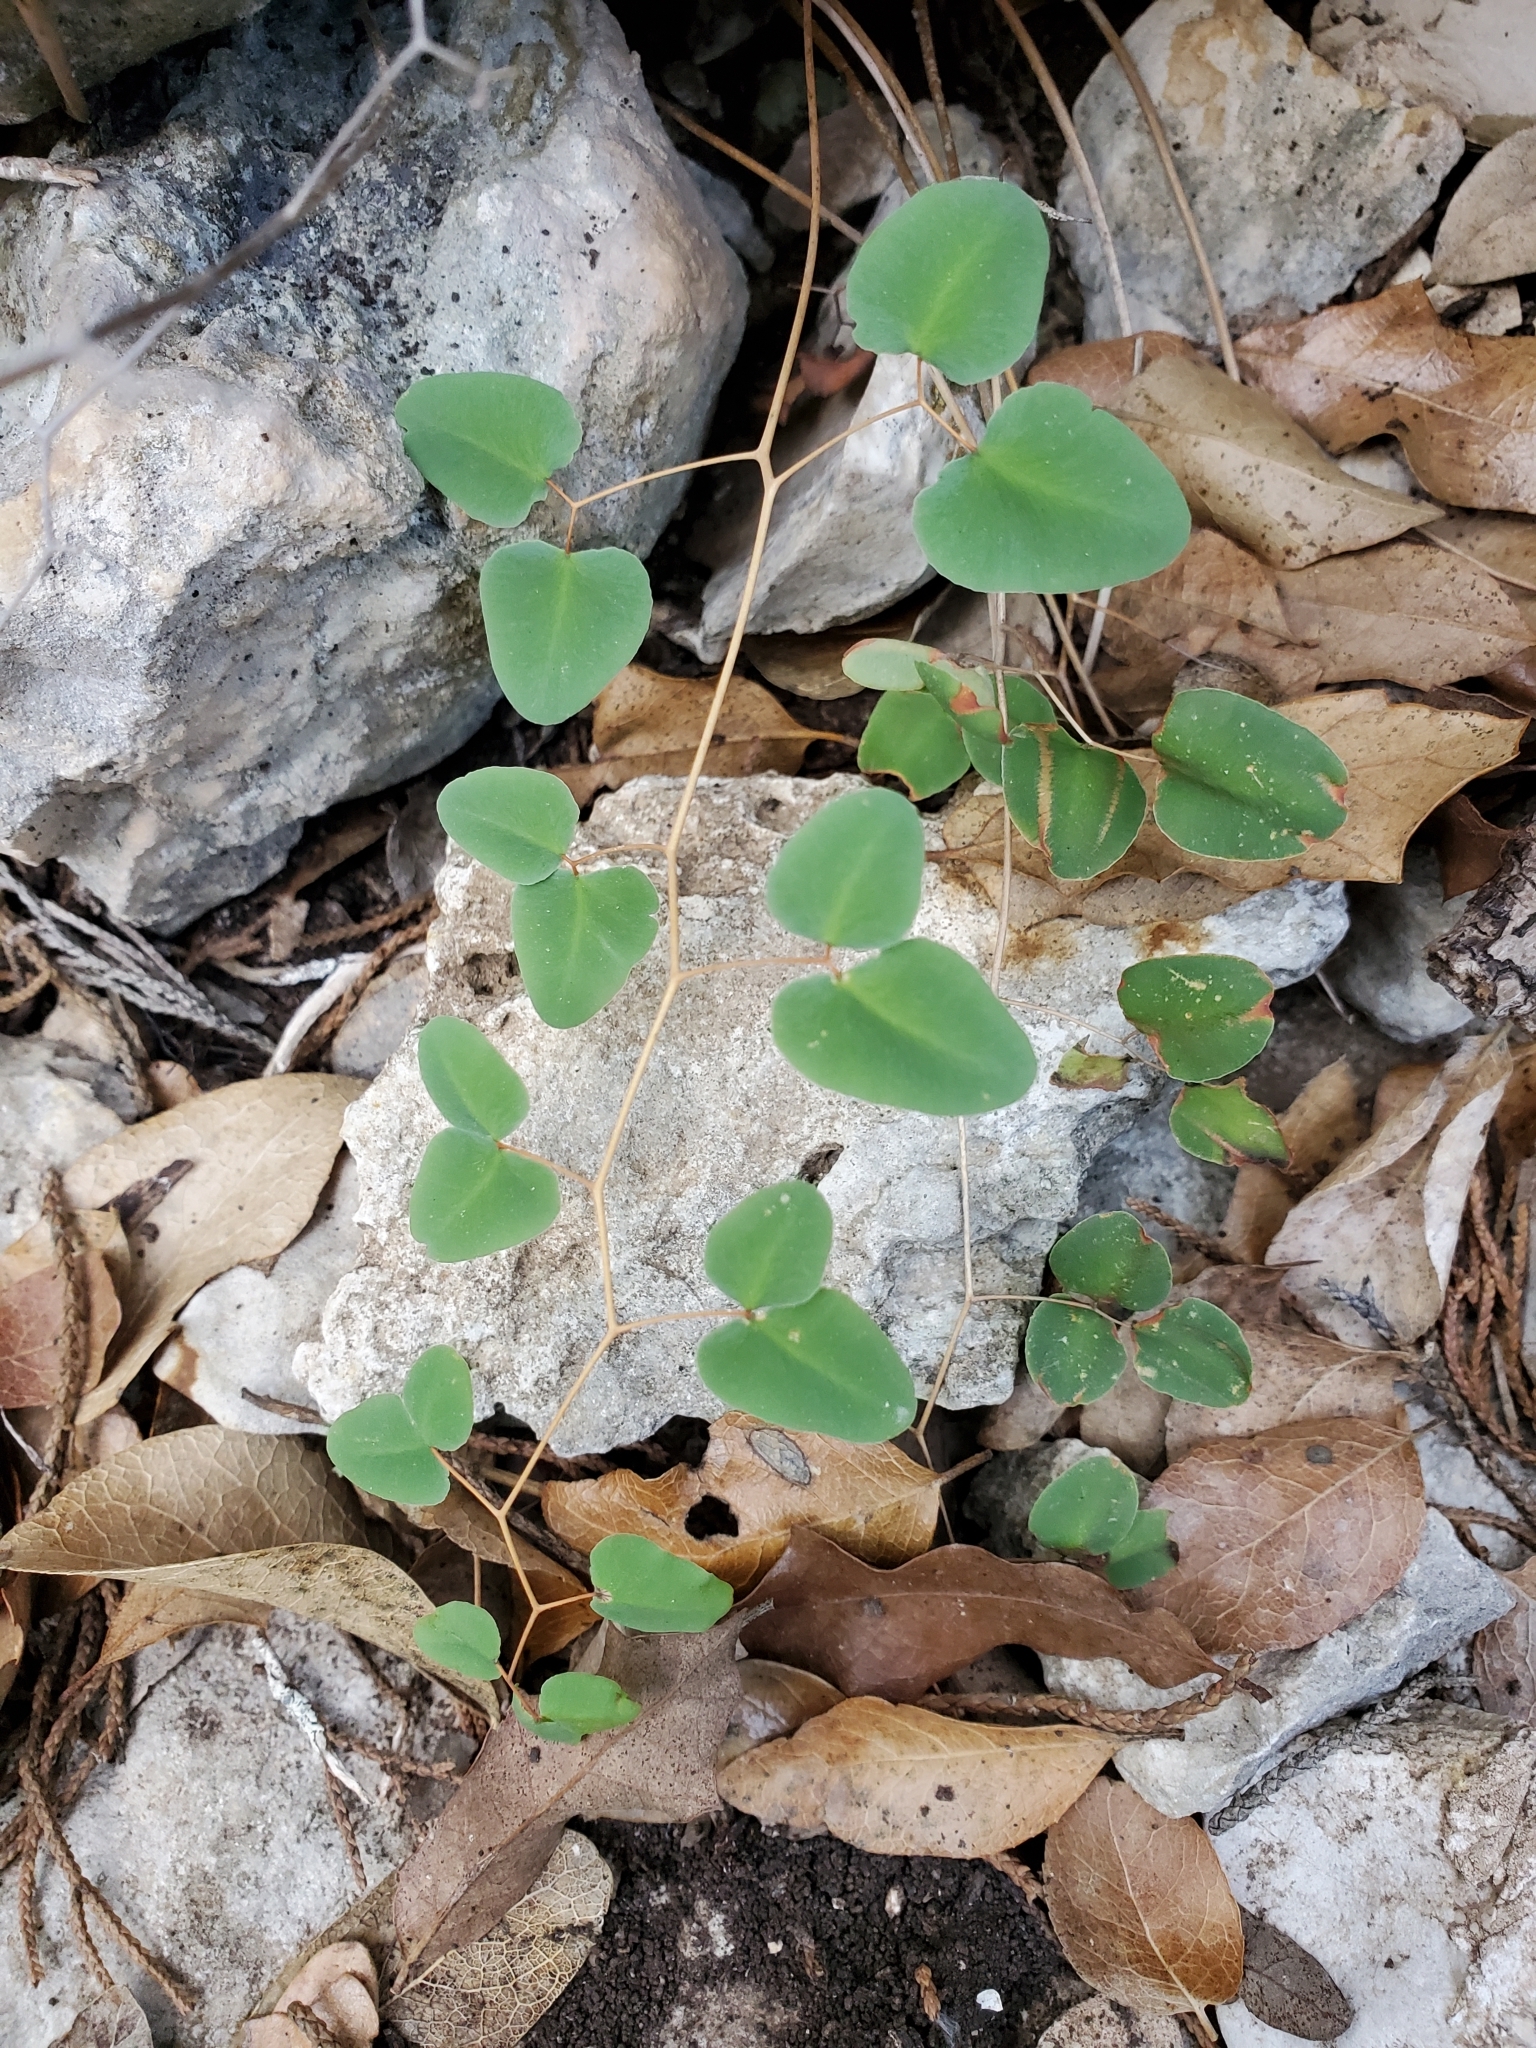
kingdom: Plantae
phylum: Tracheophyta
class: Polypodiopsida
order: Polypodiales
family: Pteridaceae
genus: Pellaea
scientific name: Pellaea ovata
